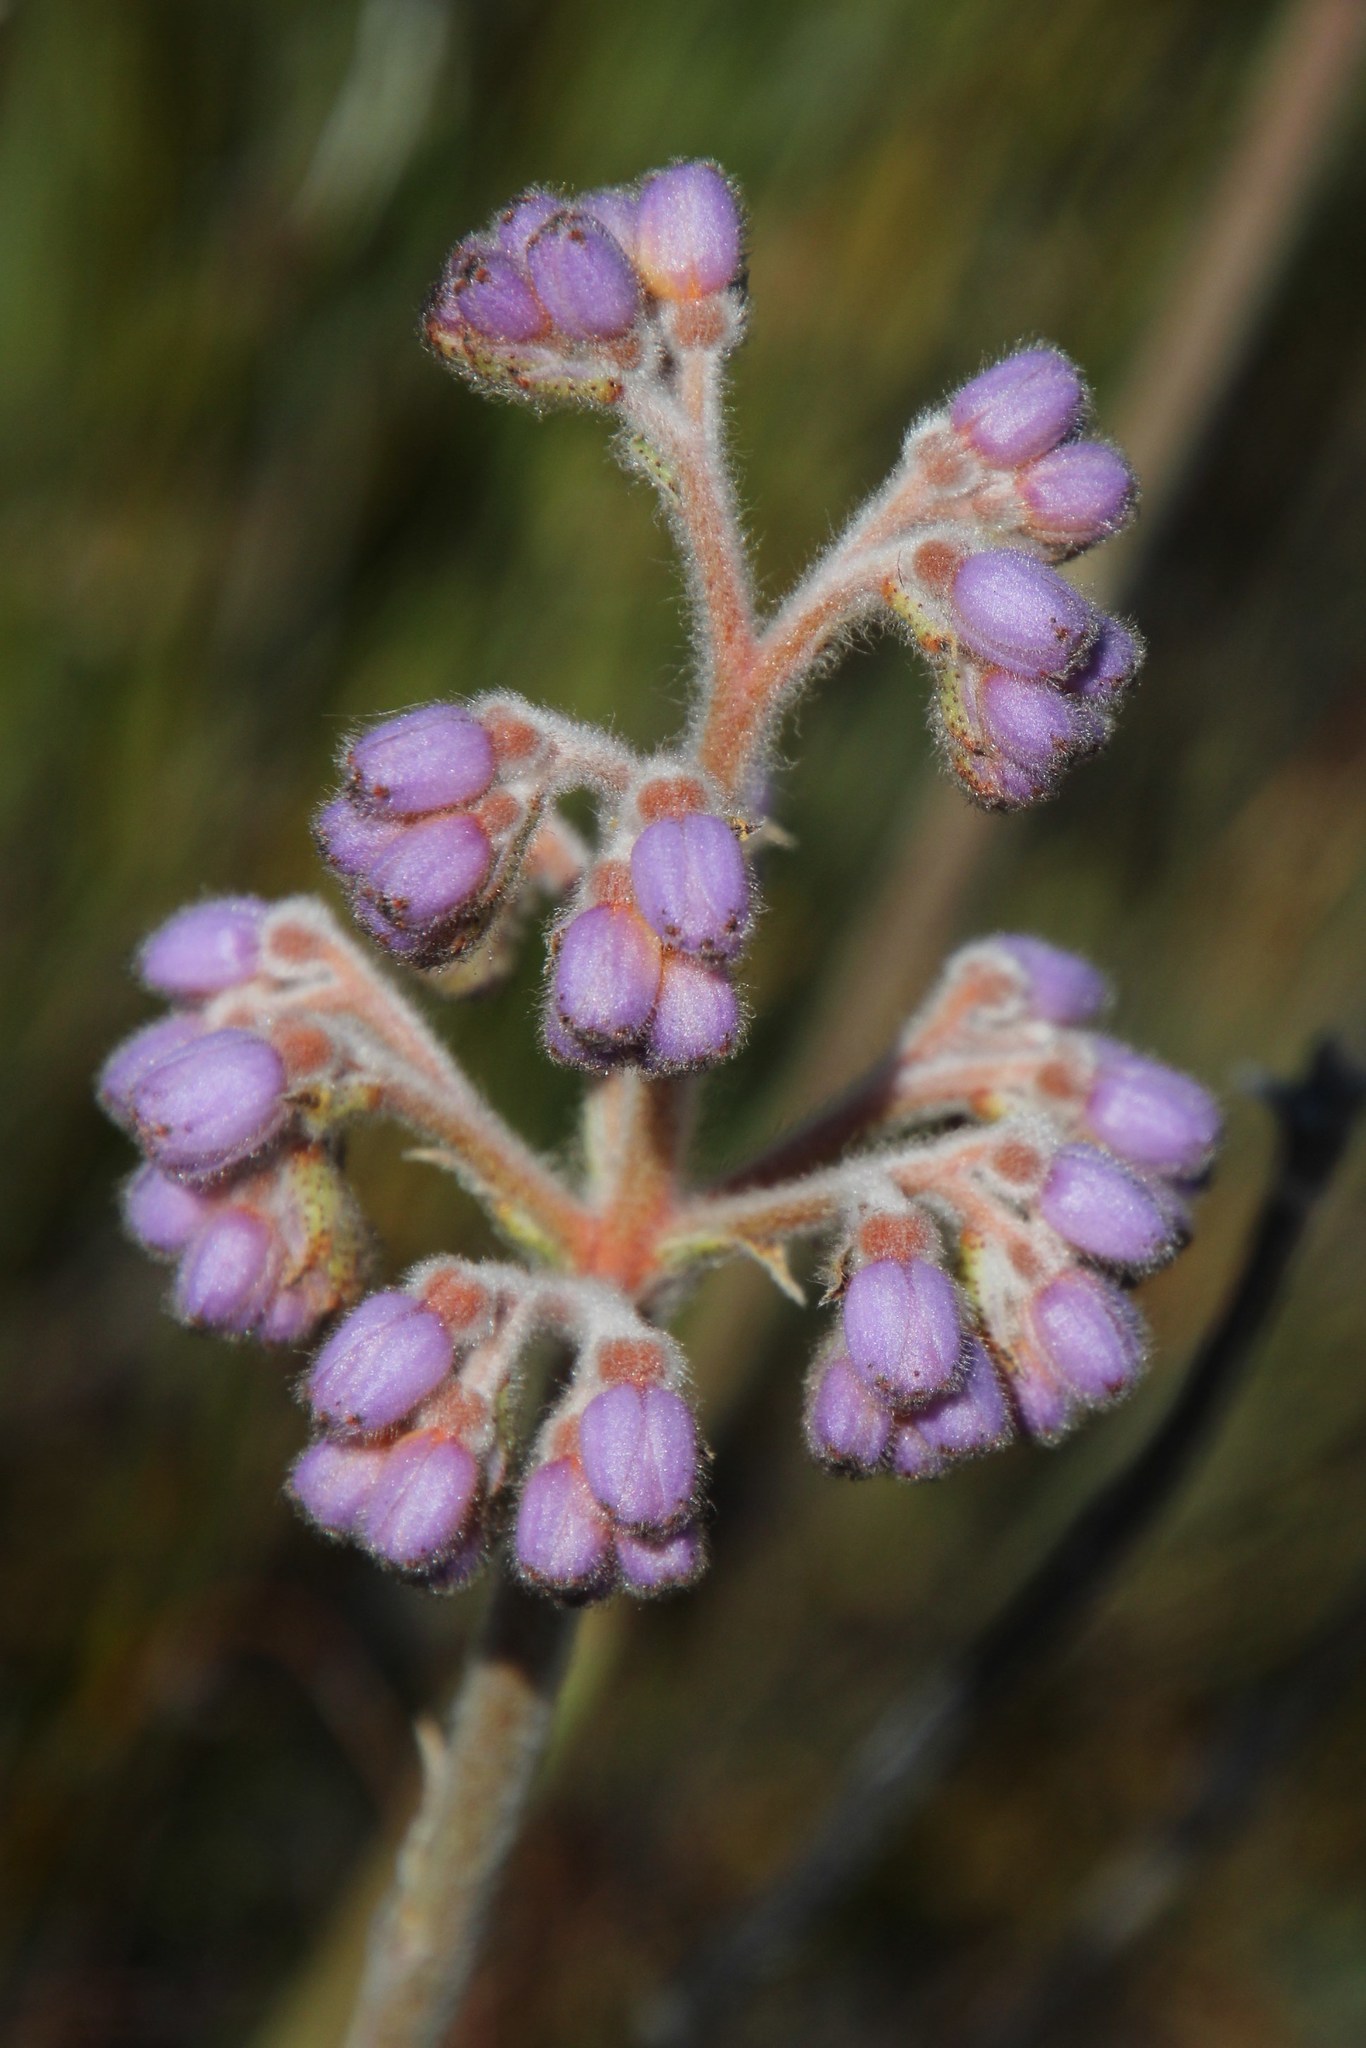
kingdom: Plantae
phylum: Tracheophyta
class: Liliopsida
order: Commelinales
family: Haemodoraceae
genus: Dilatris
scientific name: Dilatris ixioides
